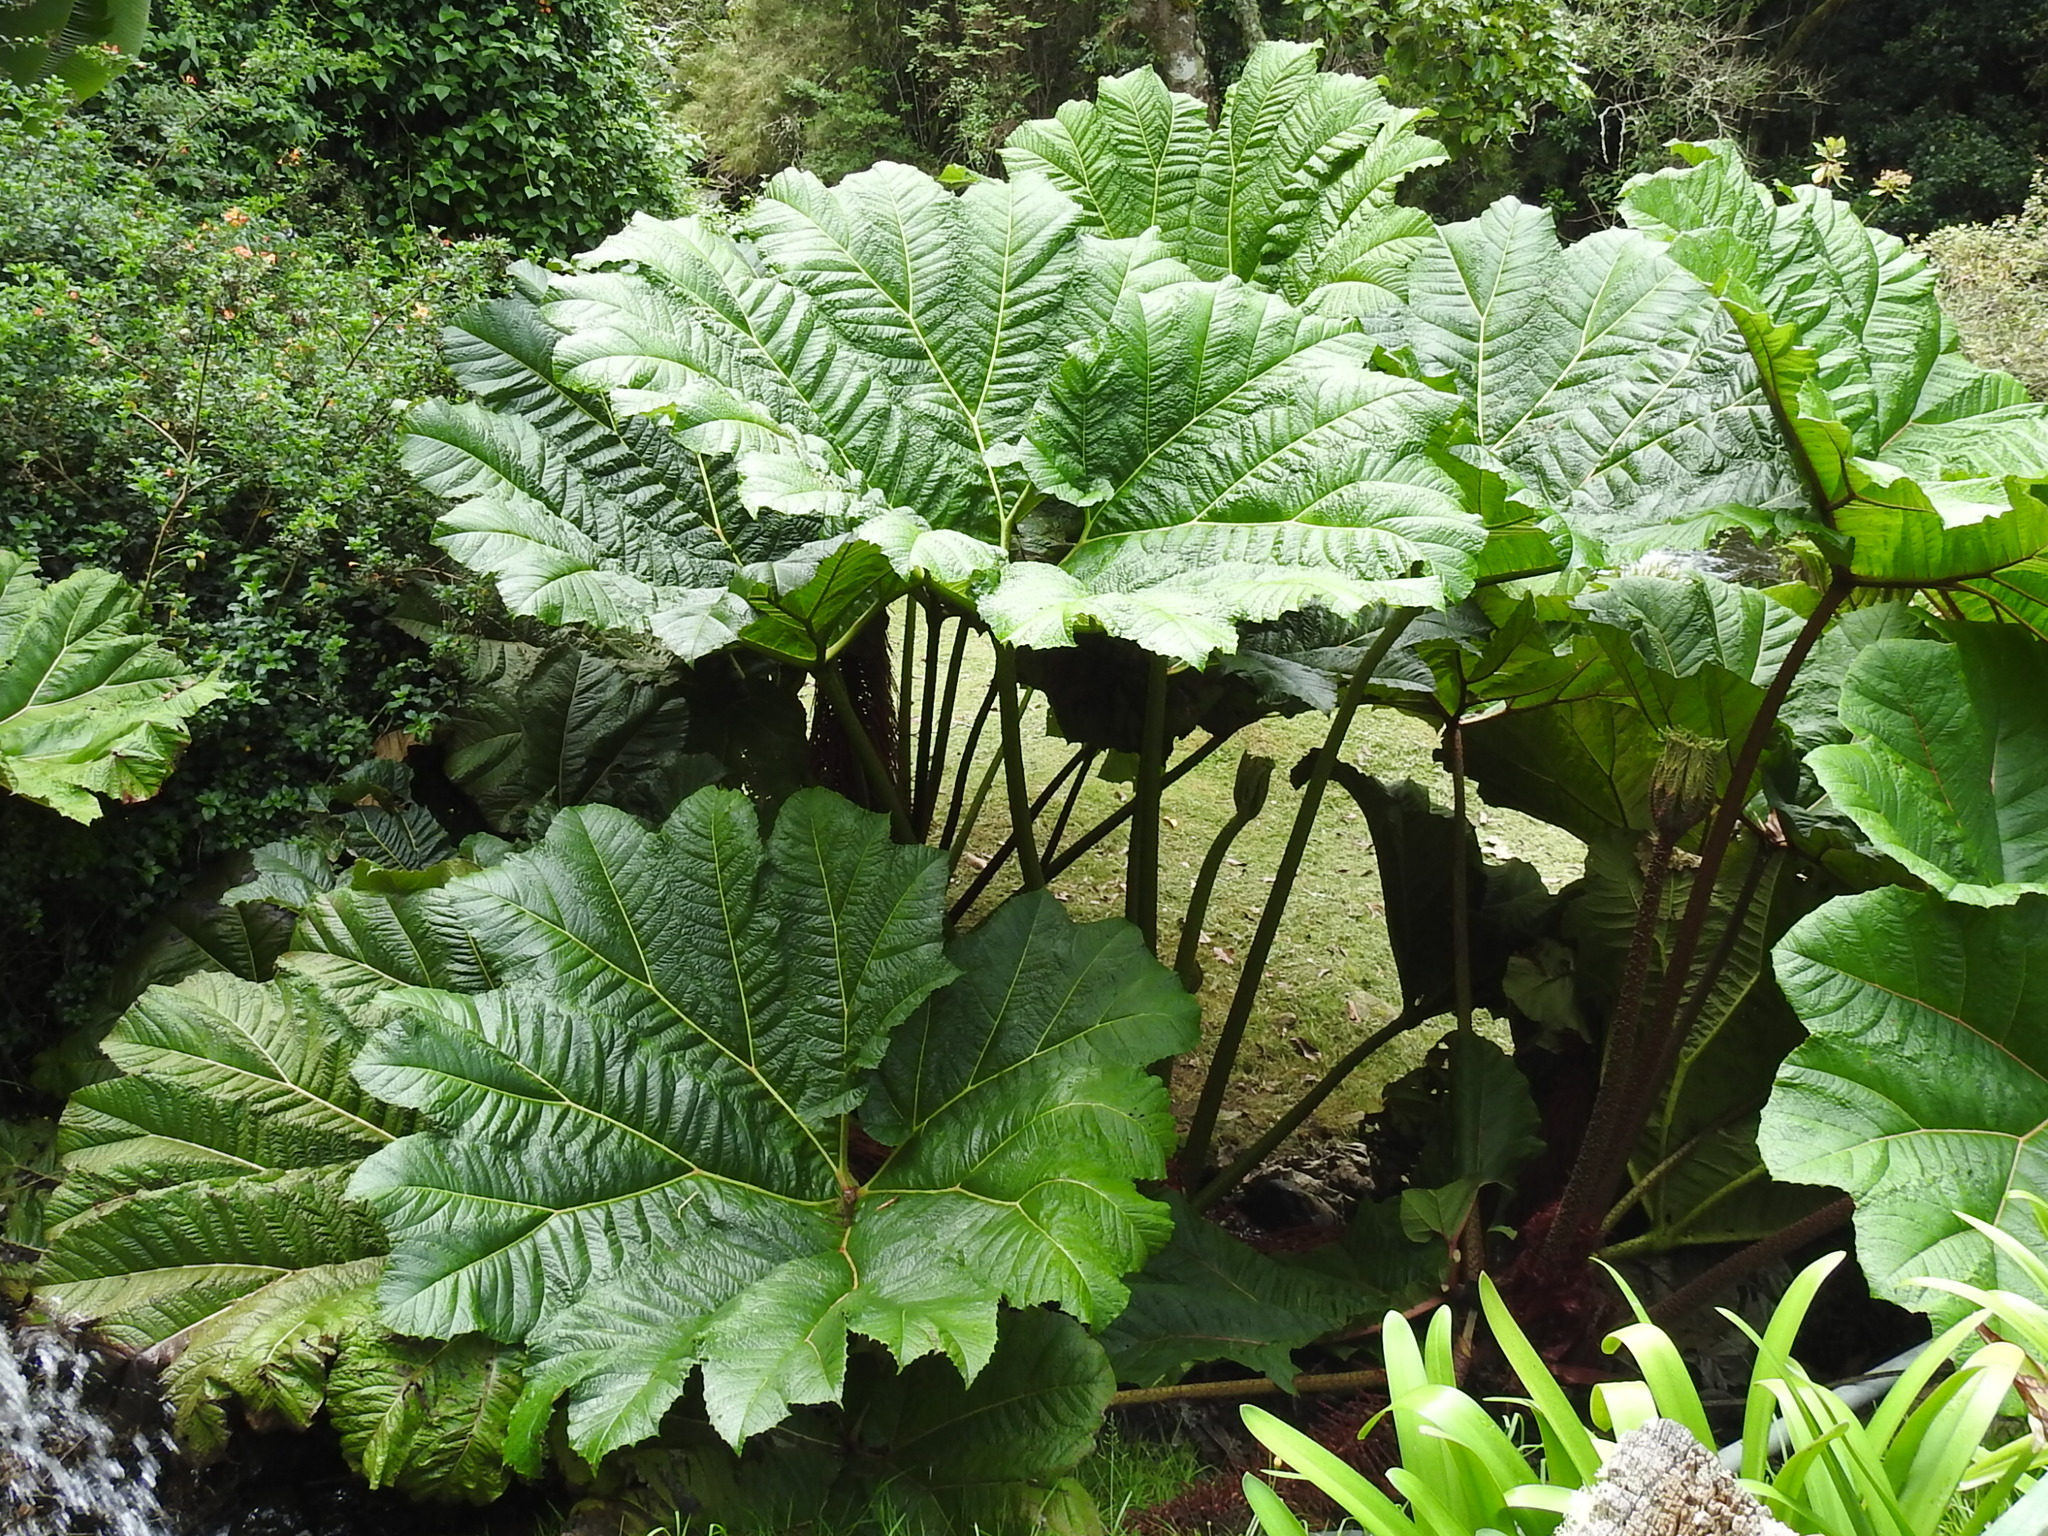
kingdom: Plantae
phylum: Tracheophyta
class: Magnoliopsida
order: Gunnerales
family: Gunneraceae
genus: Gunnera
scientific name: Gunnera insignis
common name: Poorman's umbrella
